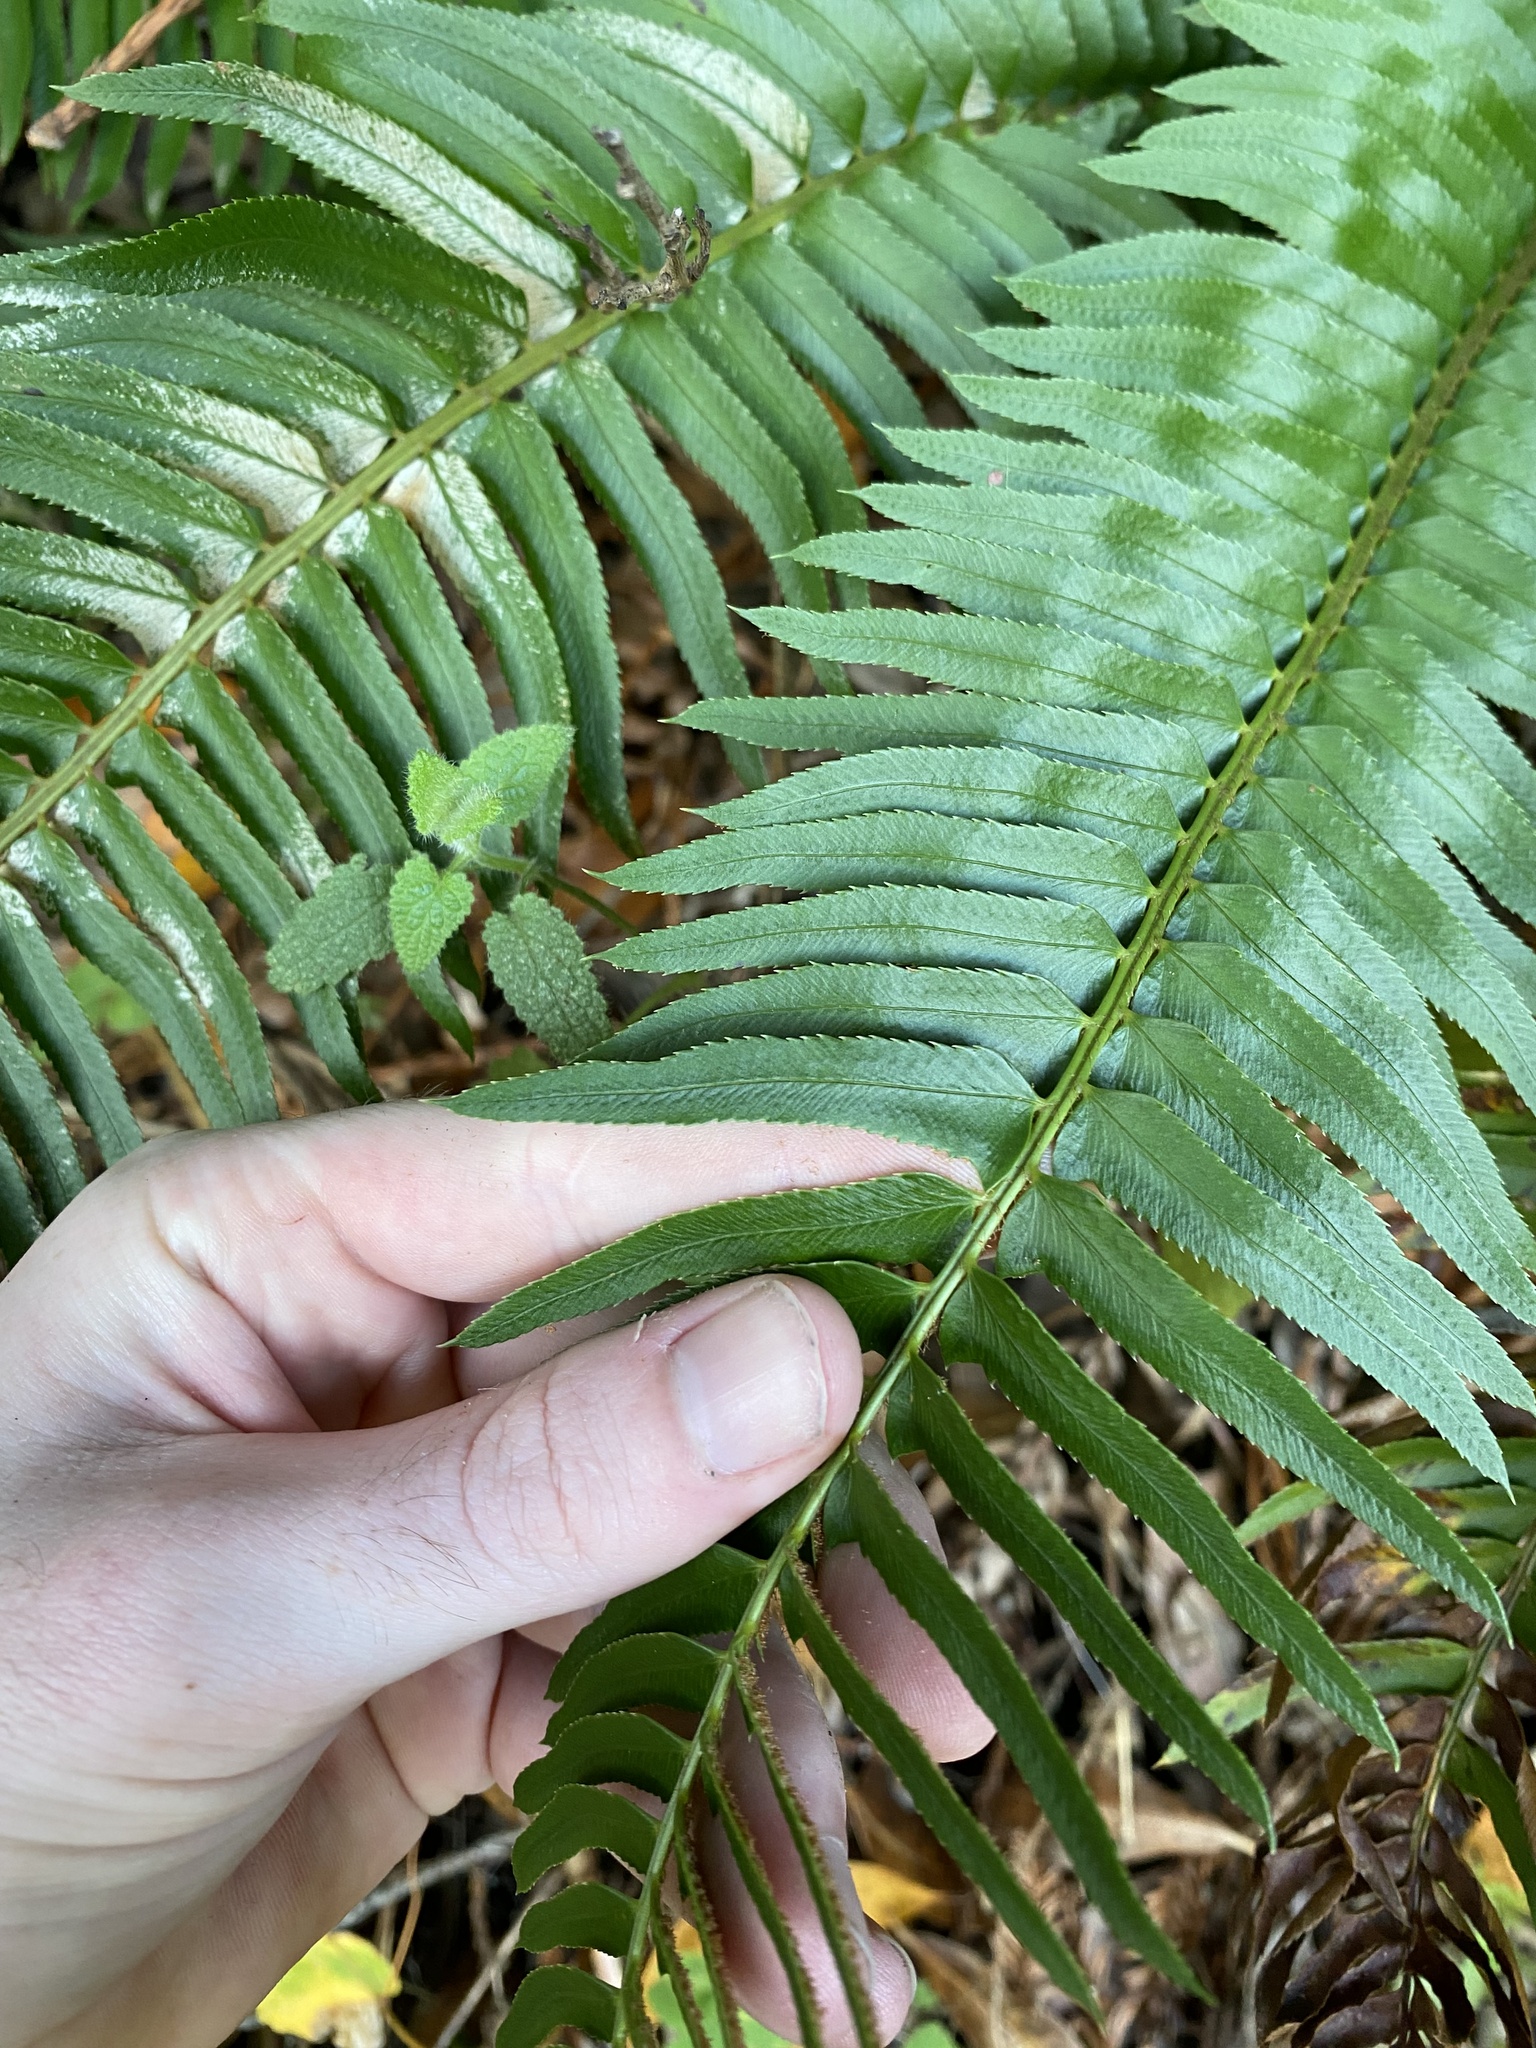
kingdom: Plantae
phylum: Tracheophyta
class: Polypodiopsida
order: Polypodiales
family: Dryopteridaceae
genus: Polystichum
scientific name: Polystichum munitum
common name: Western sword-fern
